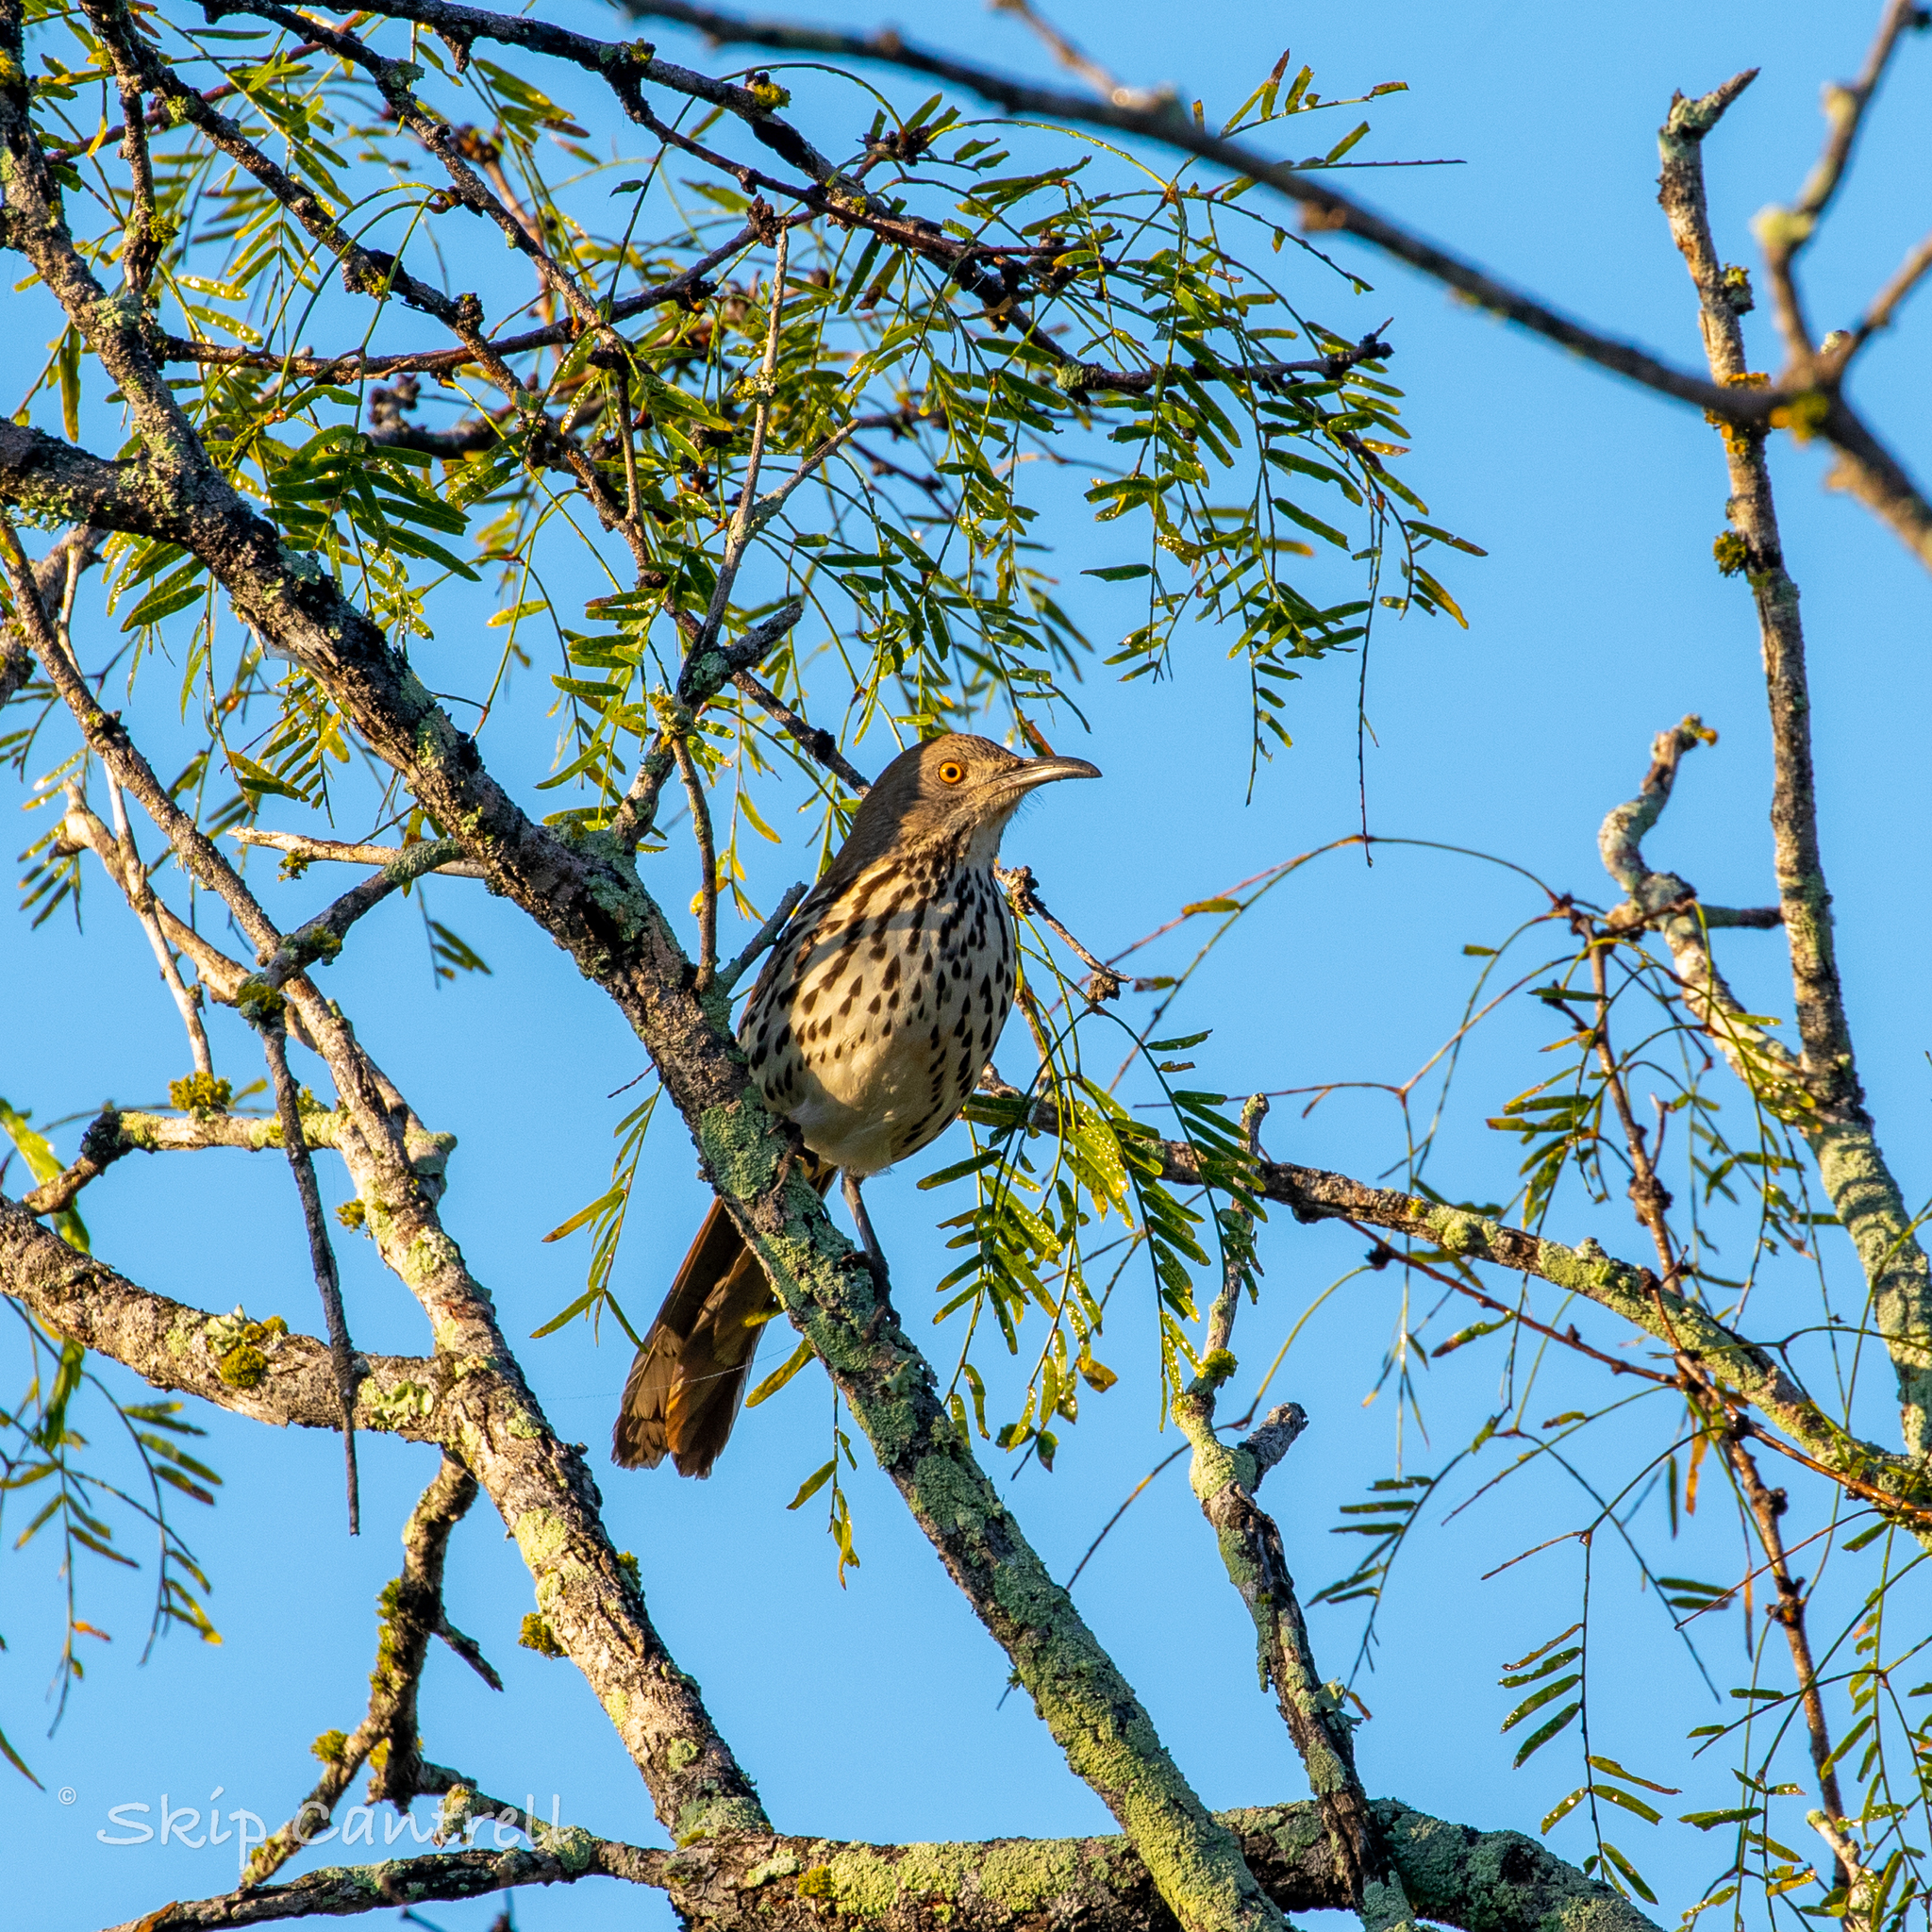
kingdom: Animalia
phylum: Chordata
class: Aves
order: Passeriformes
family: Mimidae
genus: Toxostoma
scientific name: Toxostoma longirostre
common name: Long-billed thrasher
